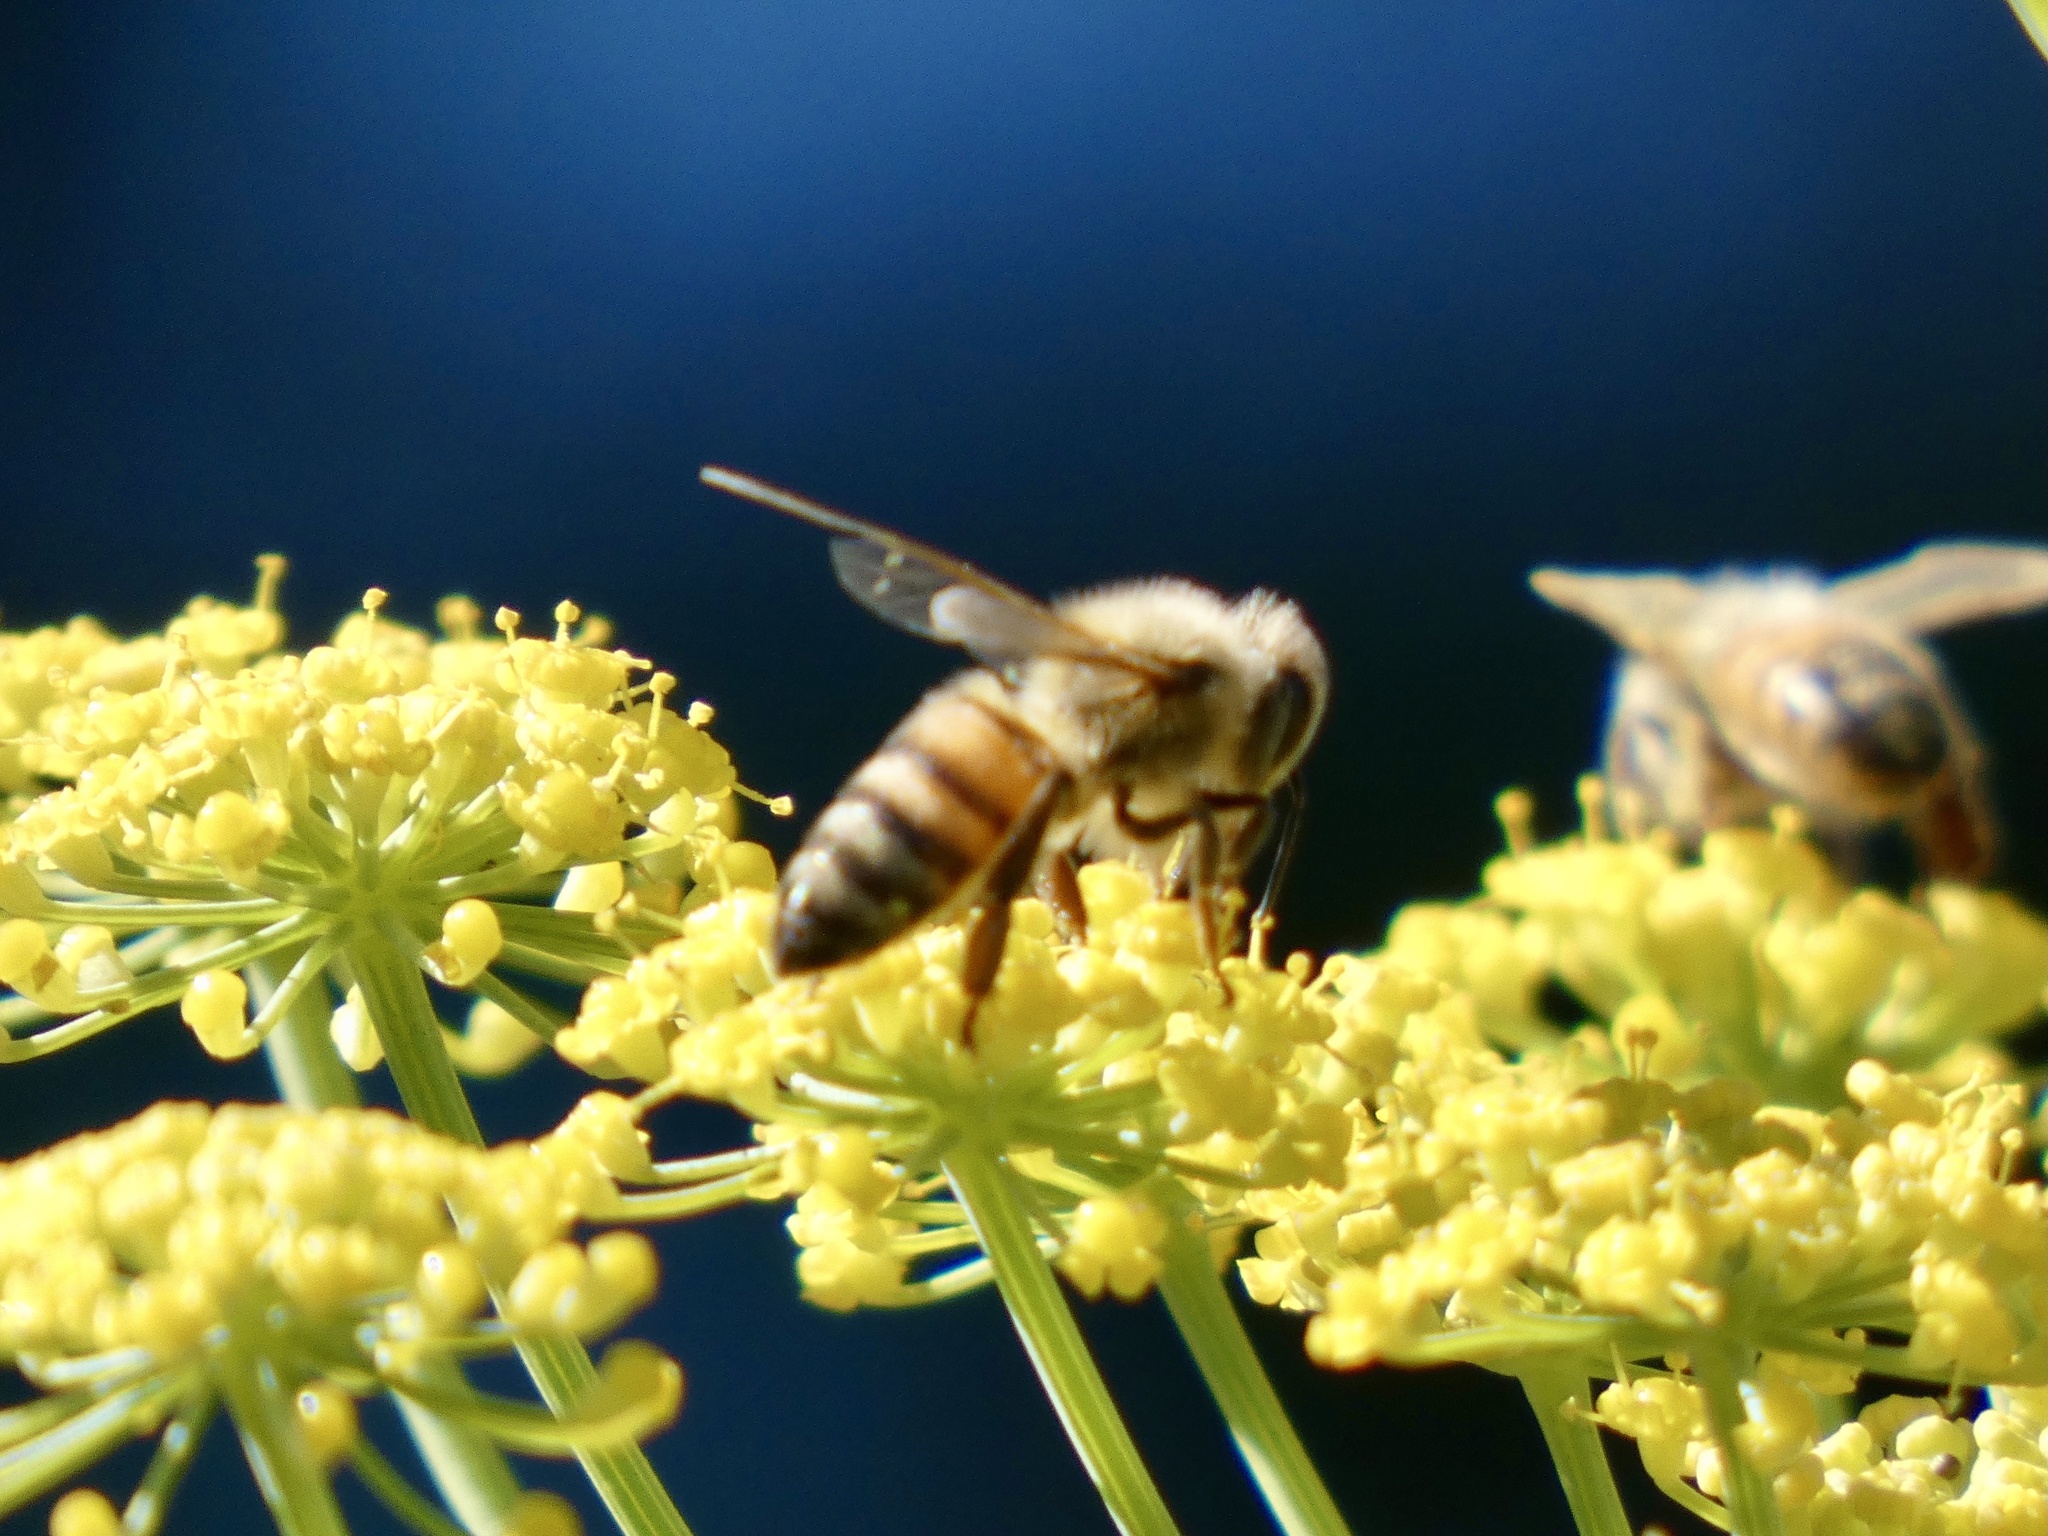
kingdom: Animalia
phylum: Arthropoda
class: Insecta
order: Hymenoptera
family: Apidae
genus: Apis
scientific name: Apis mellifera
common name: Honey bee
